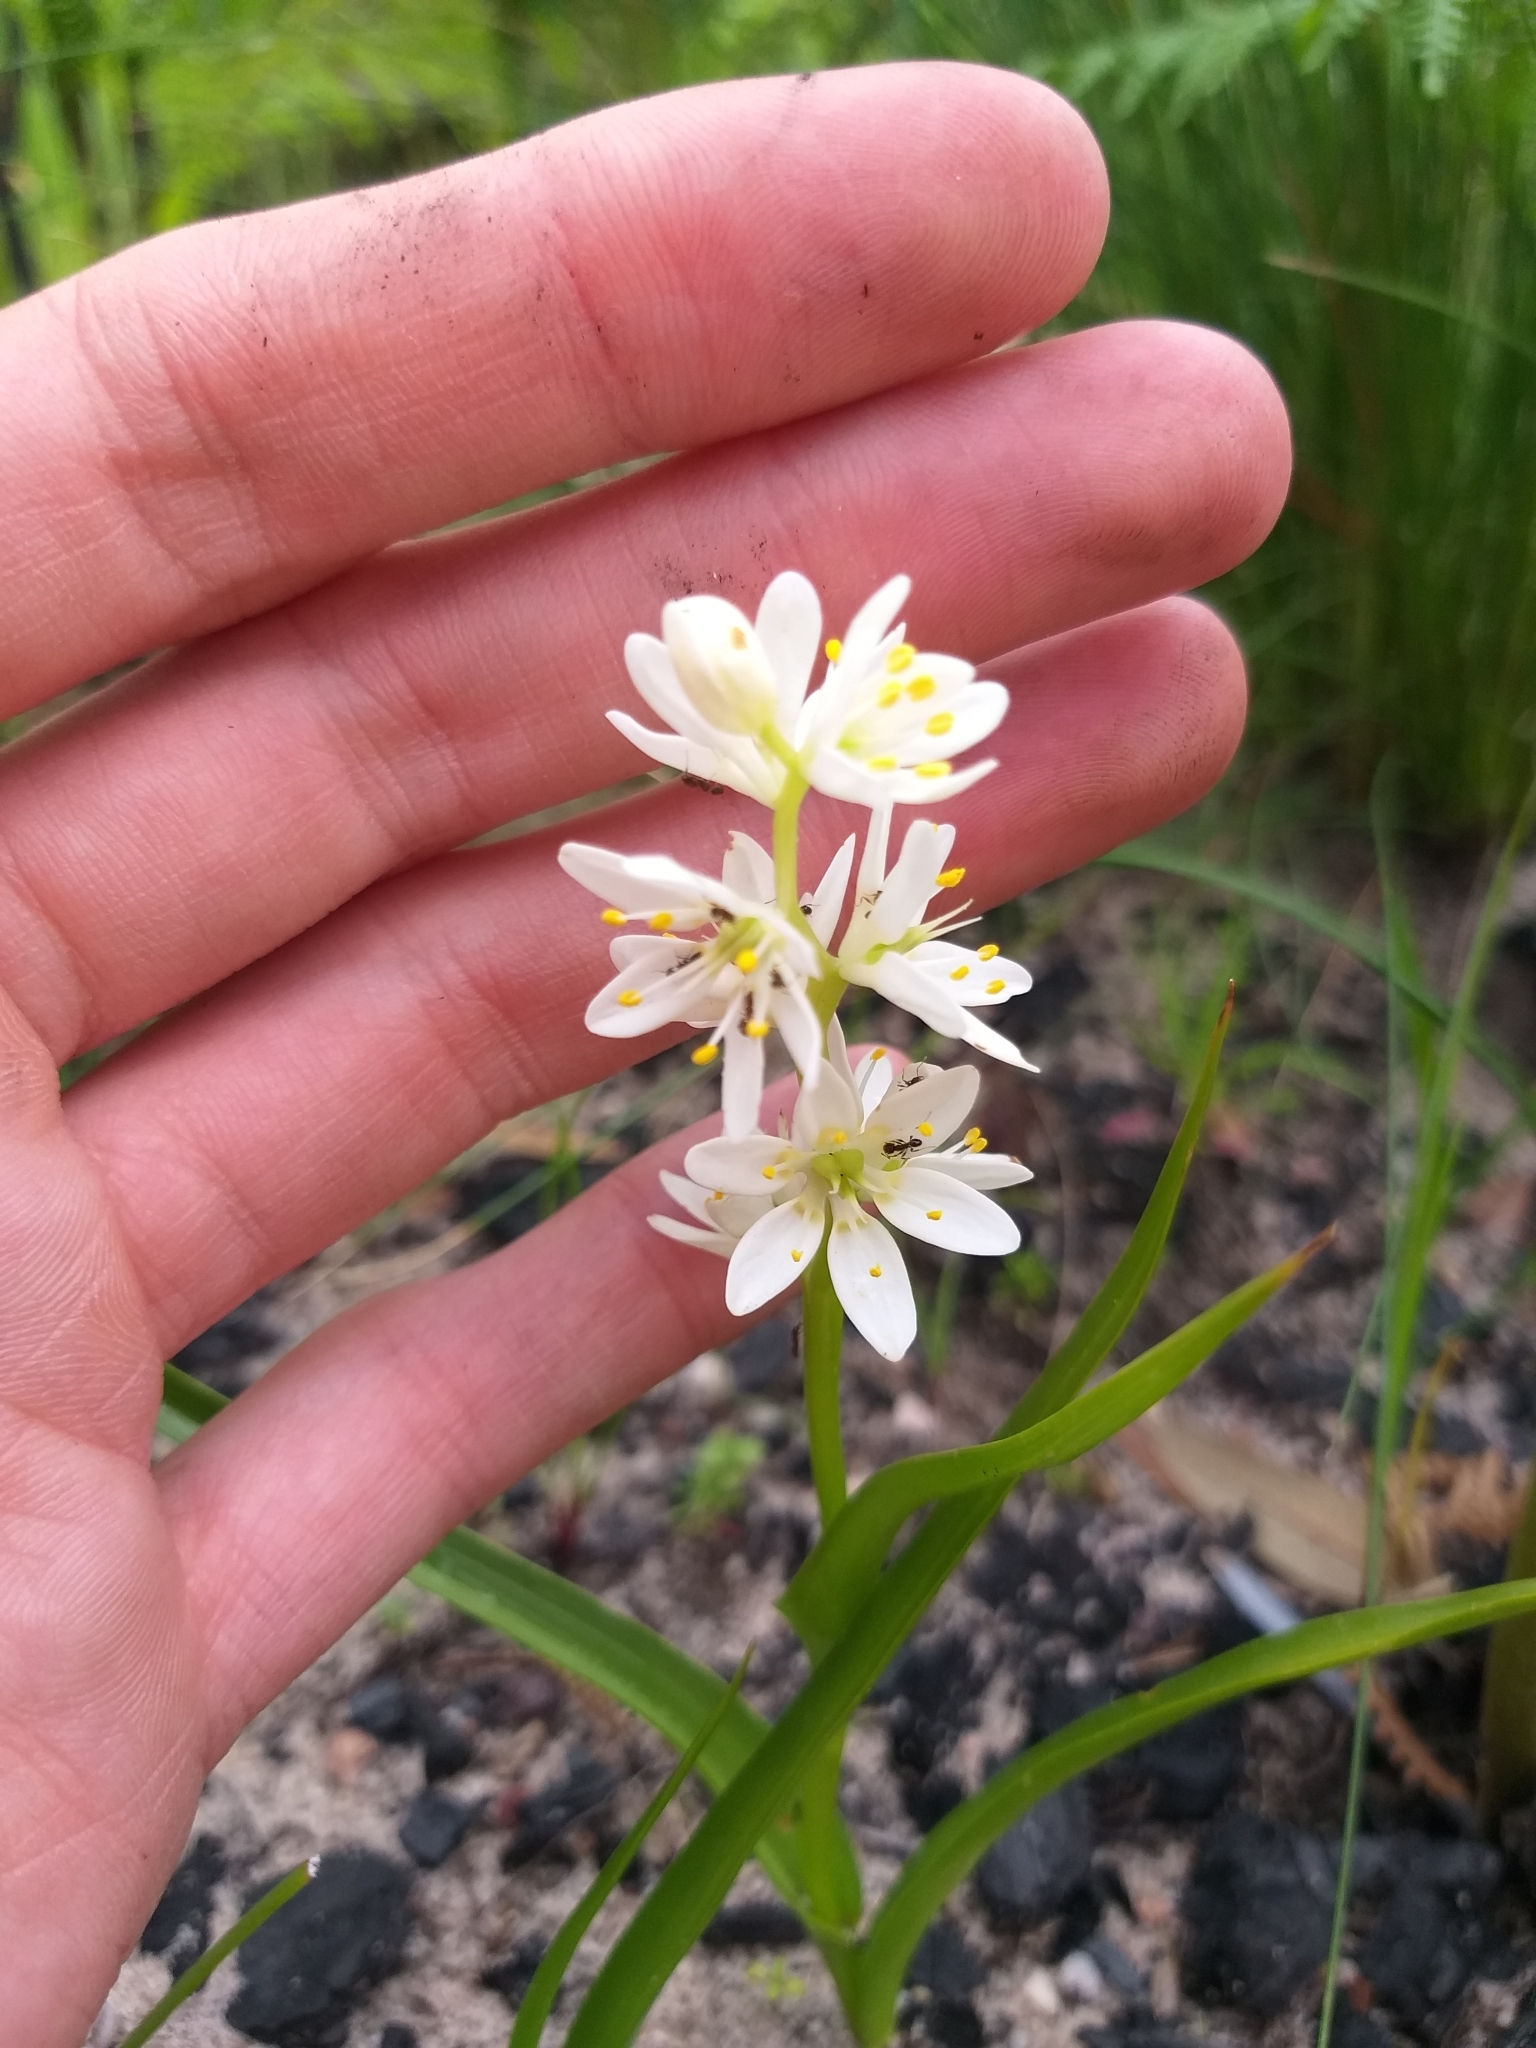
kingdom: Plantae
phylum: Tracheophyta
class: Liliopsida
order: Liliales
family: Colchicaceae
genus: Wurmbea
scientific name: Wurmbea punctata
